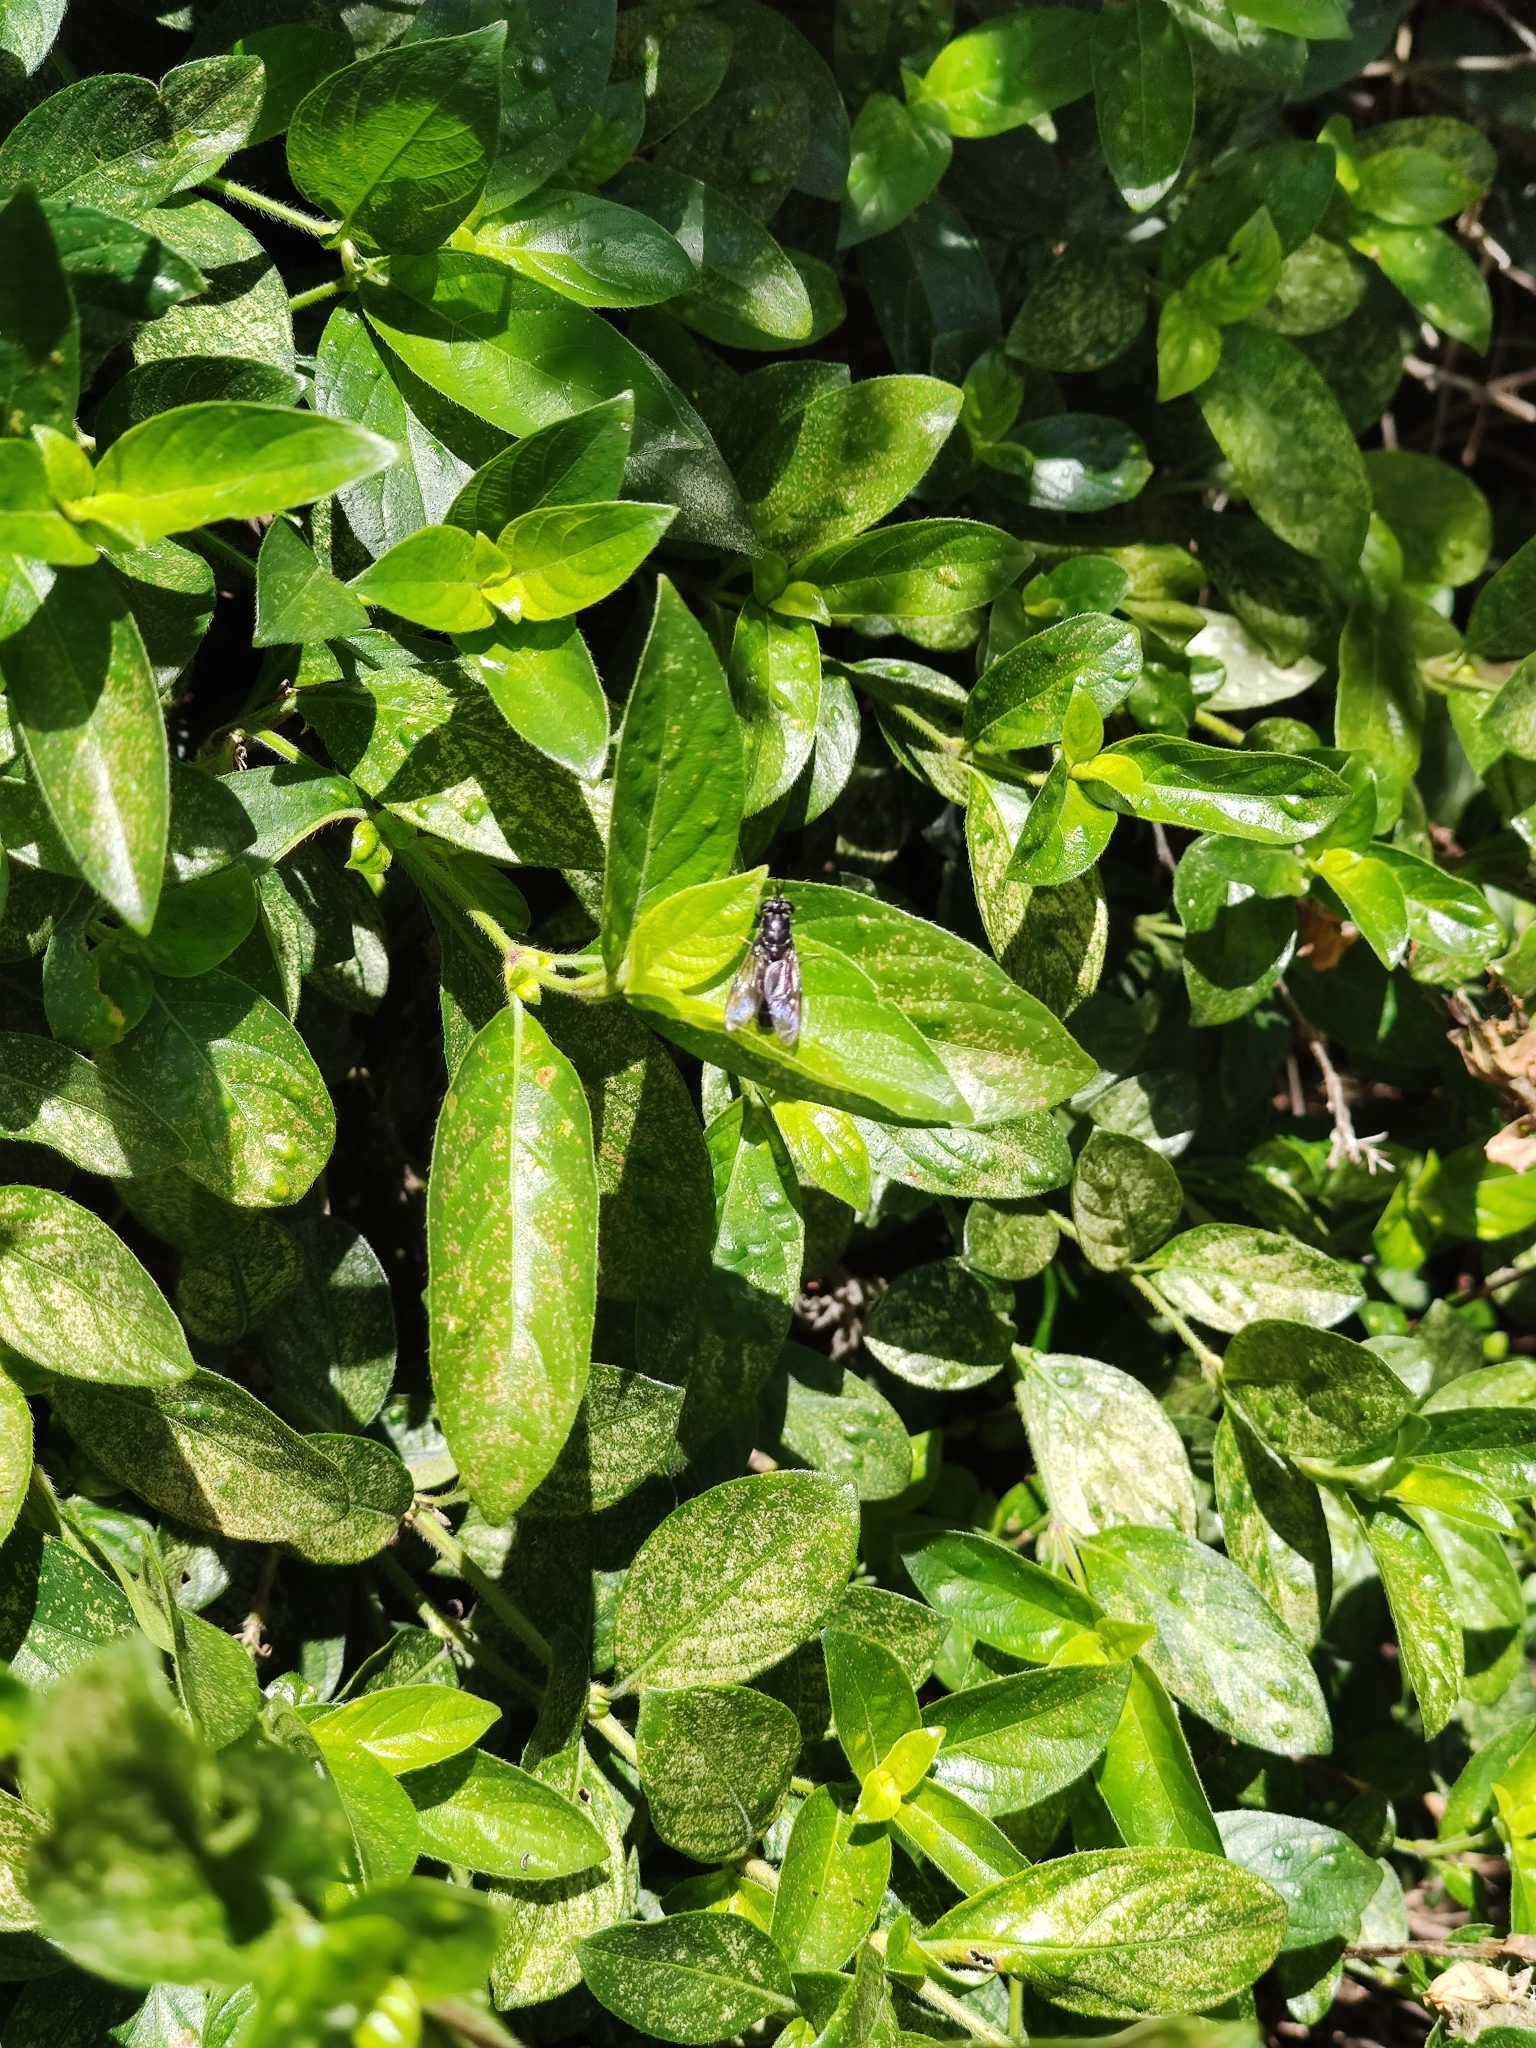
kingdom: Animalia
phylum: Arthropoda
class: Insecta
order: Diptera
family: Stratiomyidae
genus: Hermetia
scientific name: Hermetia illucens
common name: Black soldier fly
